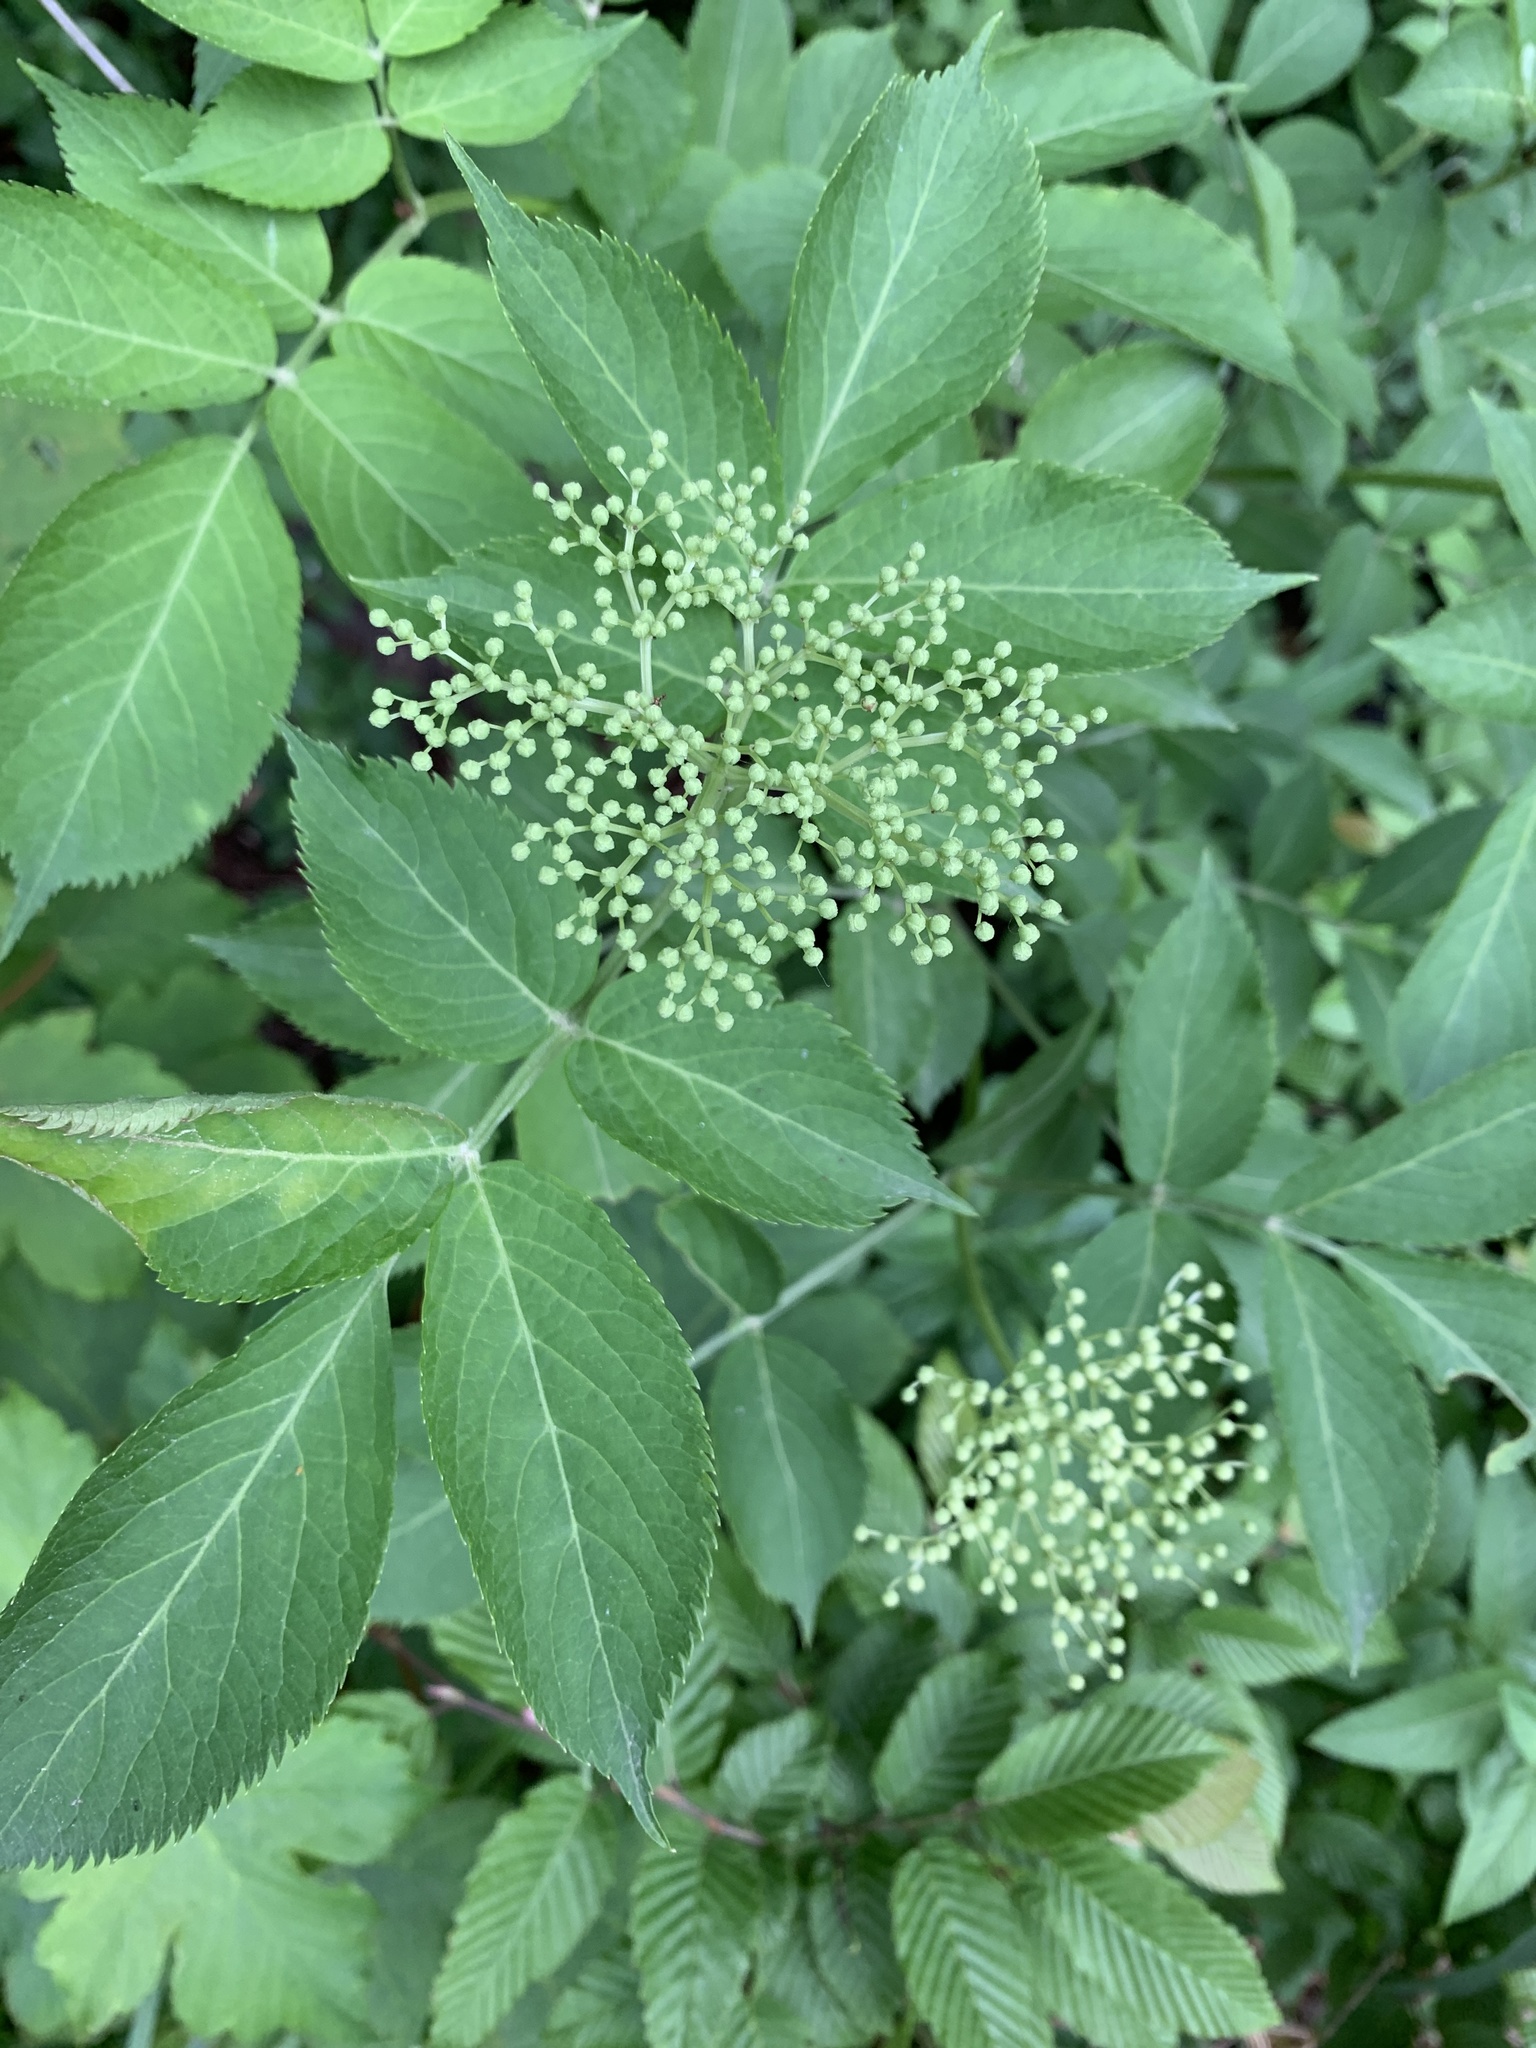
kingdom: Plantae
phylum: Tracheophyta
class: Magnoliopsida
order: Dipsacales
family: Viburnaceae
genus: Sambucus
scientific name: Sambucus nigra
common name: Elder
